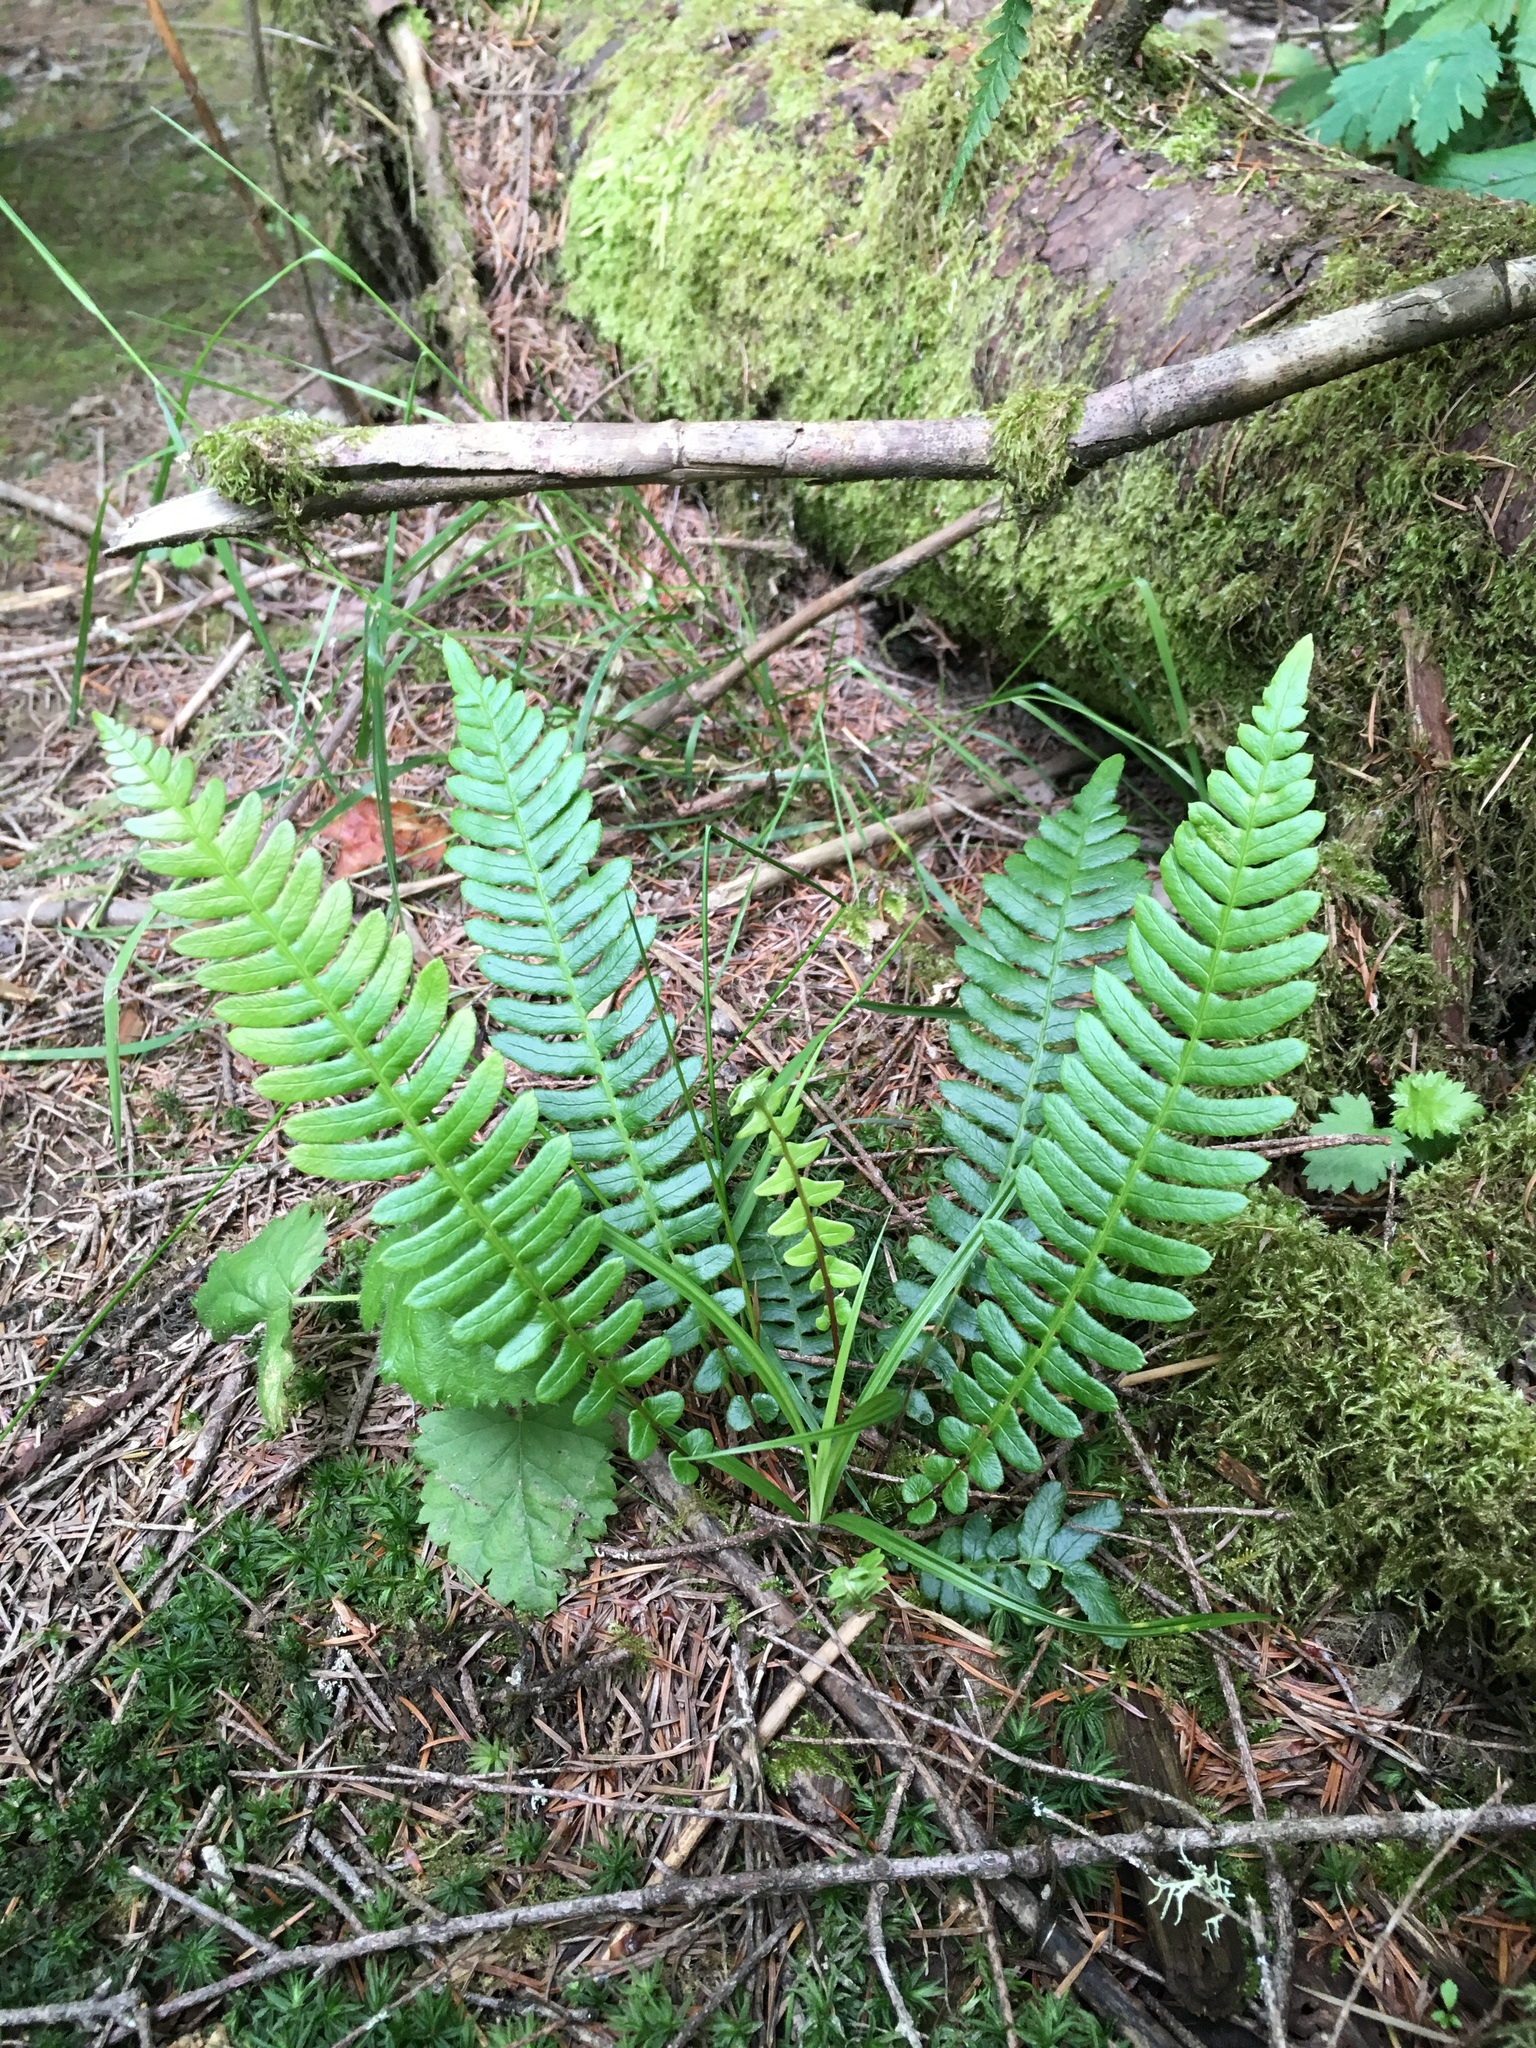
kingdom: Plantae
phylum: Tracheophyta
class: Polypodiopsida
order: Polypodiales
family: Blechnaceae
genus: Struthiopteris
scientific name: Struthiopteris spicant
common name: Deer fern
